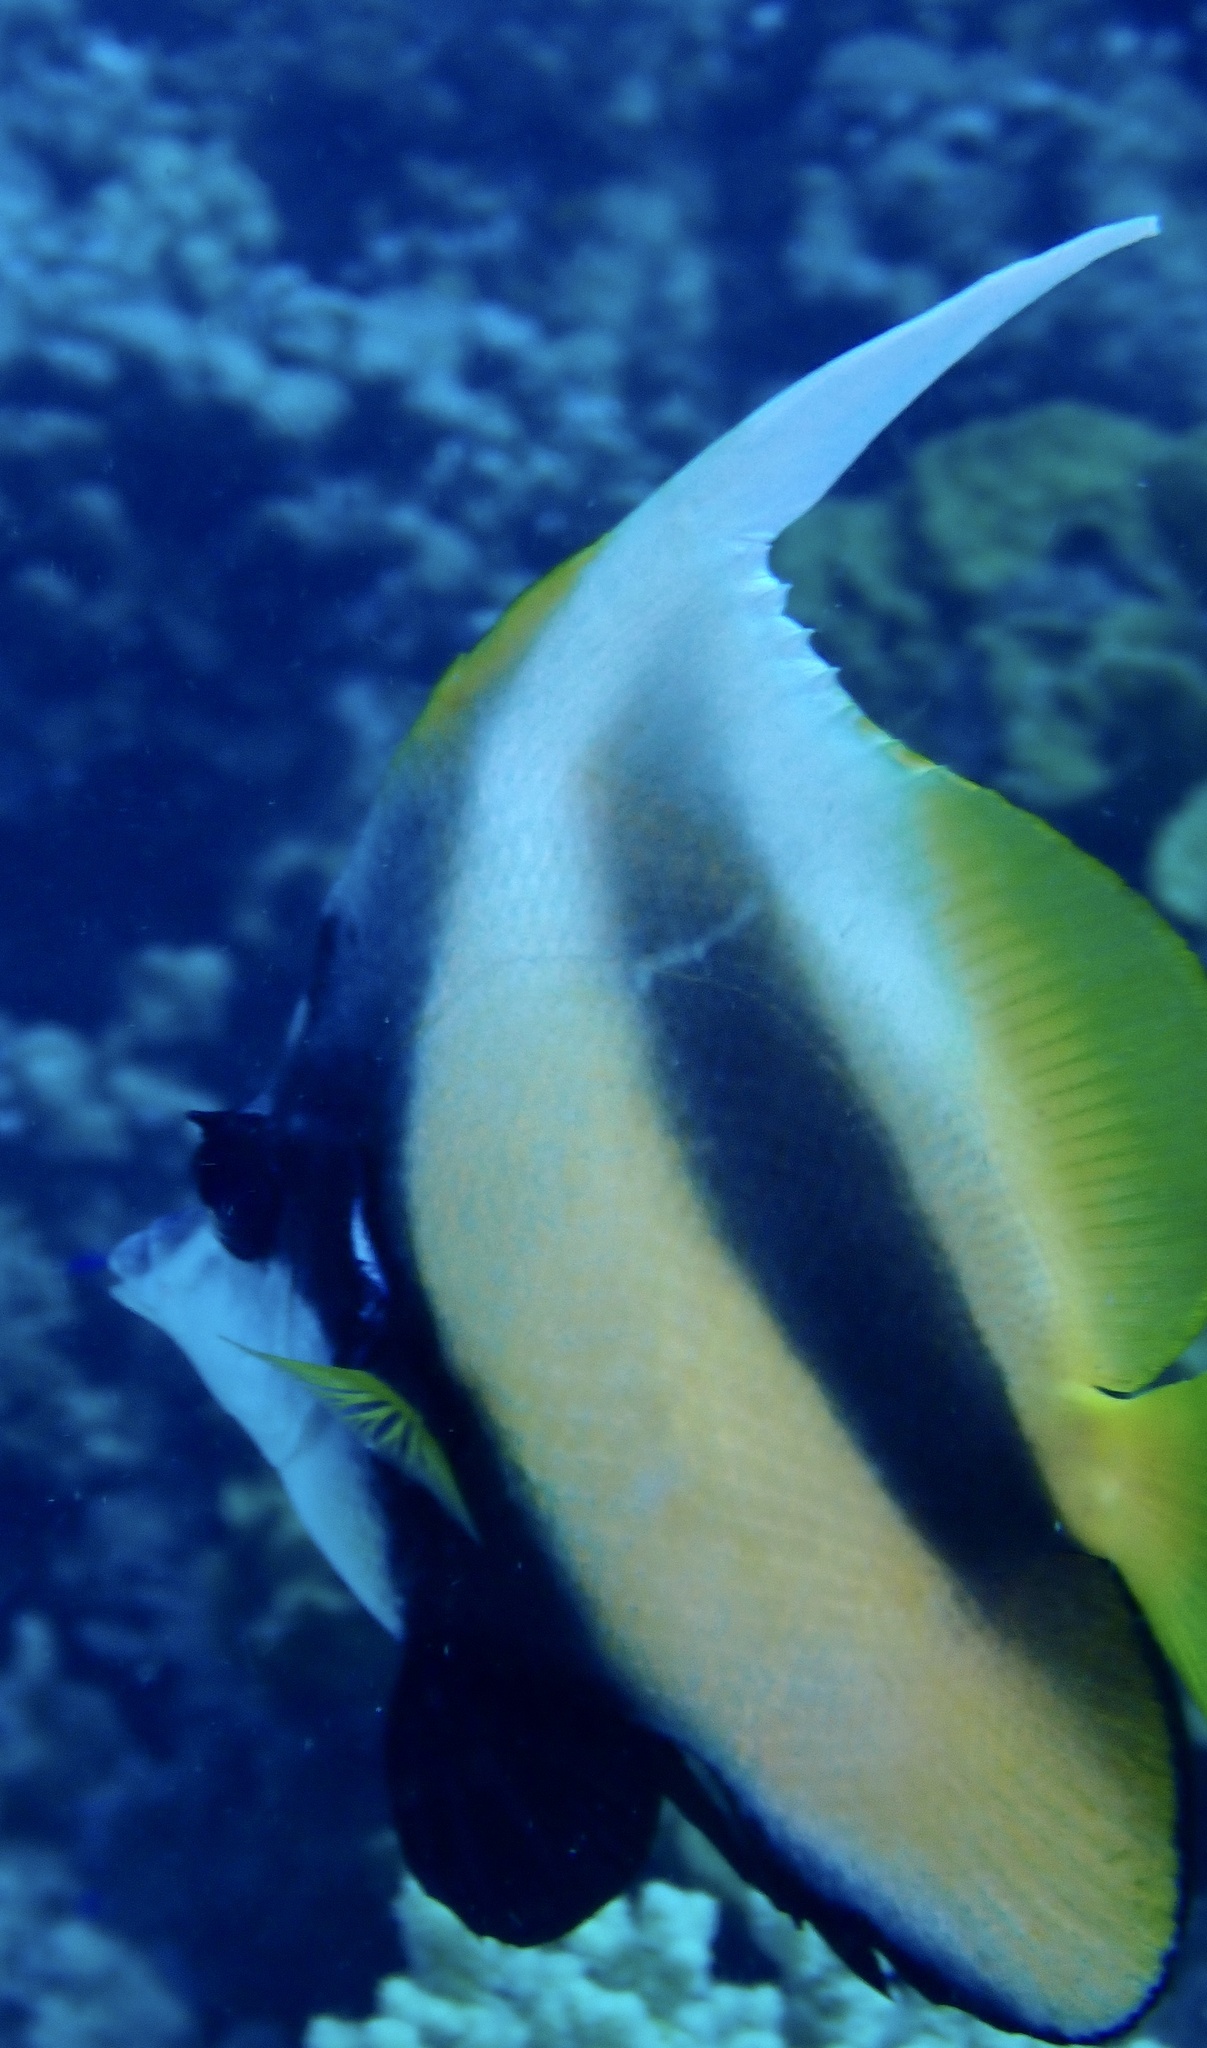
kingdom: Animalia
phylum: Chordata
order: Perciformes
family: Chaetodontidae
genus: Heniochus
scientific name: Heniochus intermedius
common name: Red sea bannerfish
